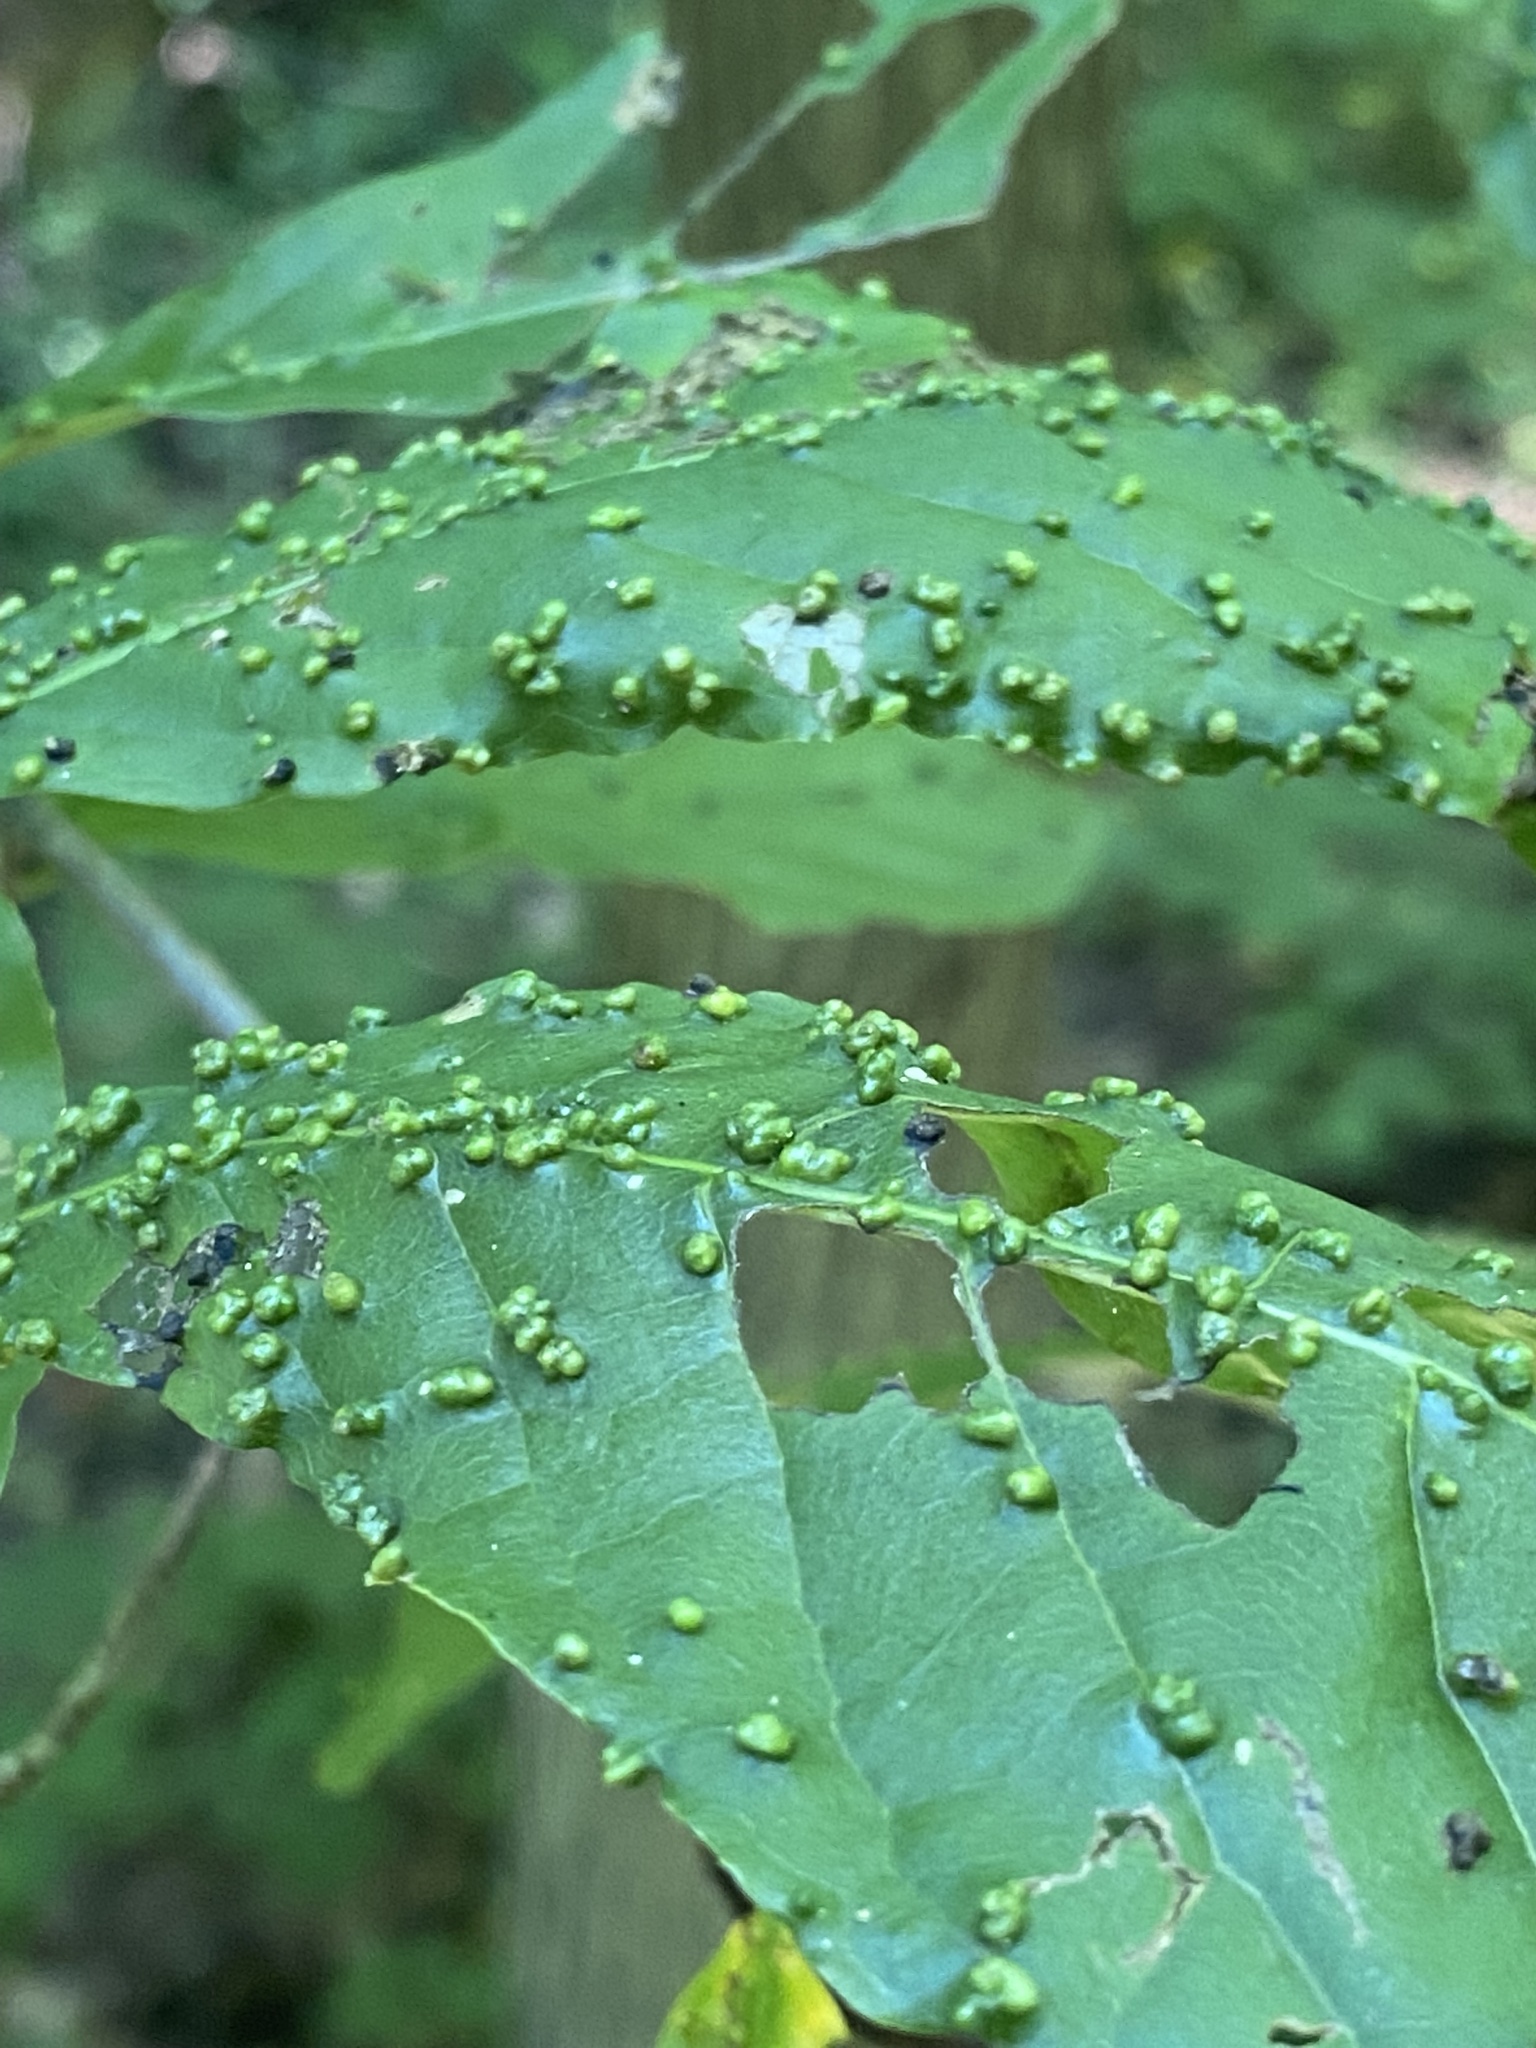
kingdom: Animalia
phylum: Arthropoda
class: Arachnida
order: Trombidiformes
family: Eriophyidae
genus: Aceria
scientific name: Aceria
